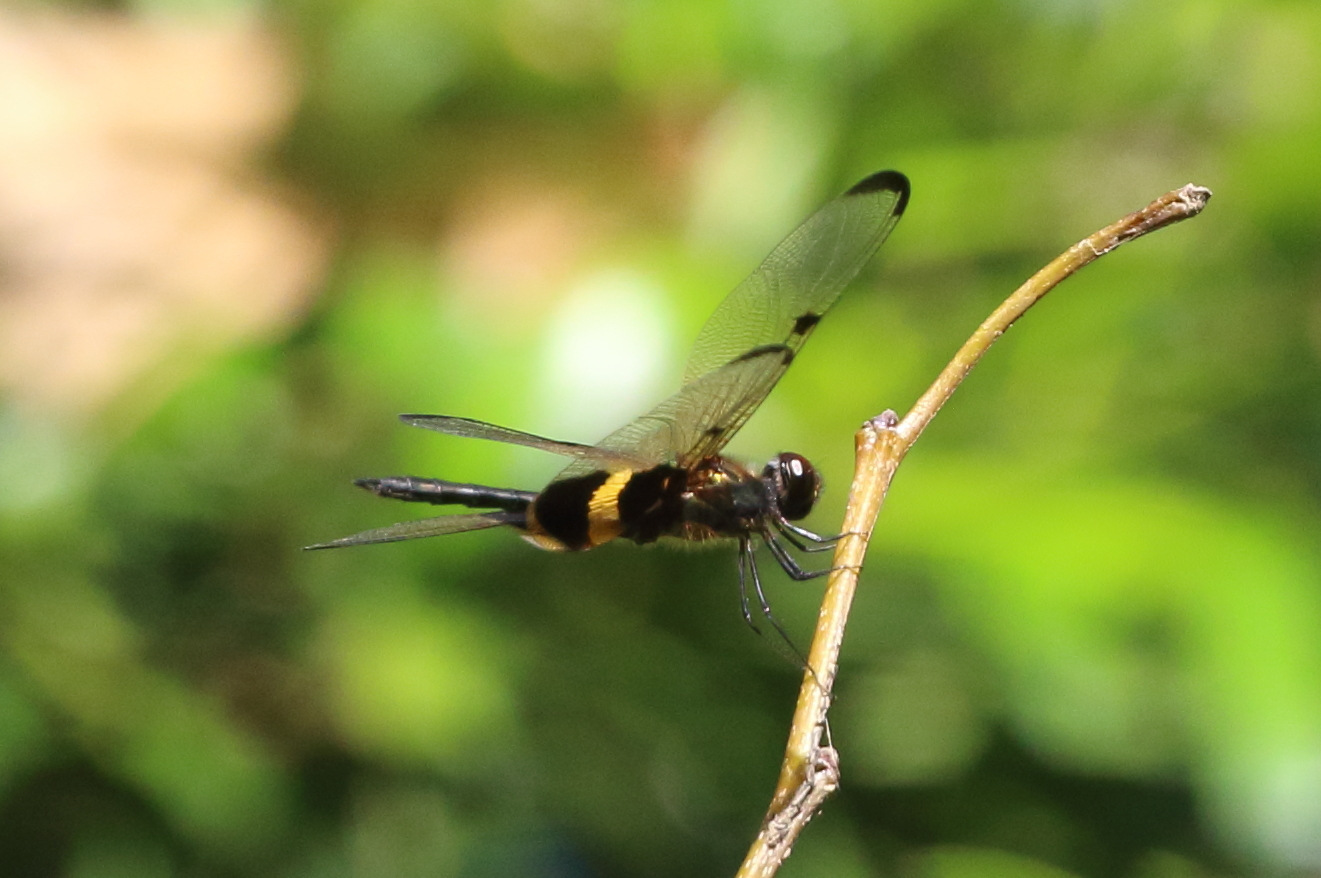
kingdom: Animalia
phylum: Arthropoda
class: Insecta
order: Odonata
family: Libellulidae
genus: Rhyothemis
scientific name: Rhyothemis phyllis
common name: Yellow-barred flutterer
